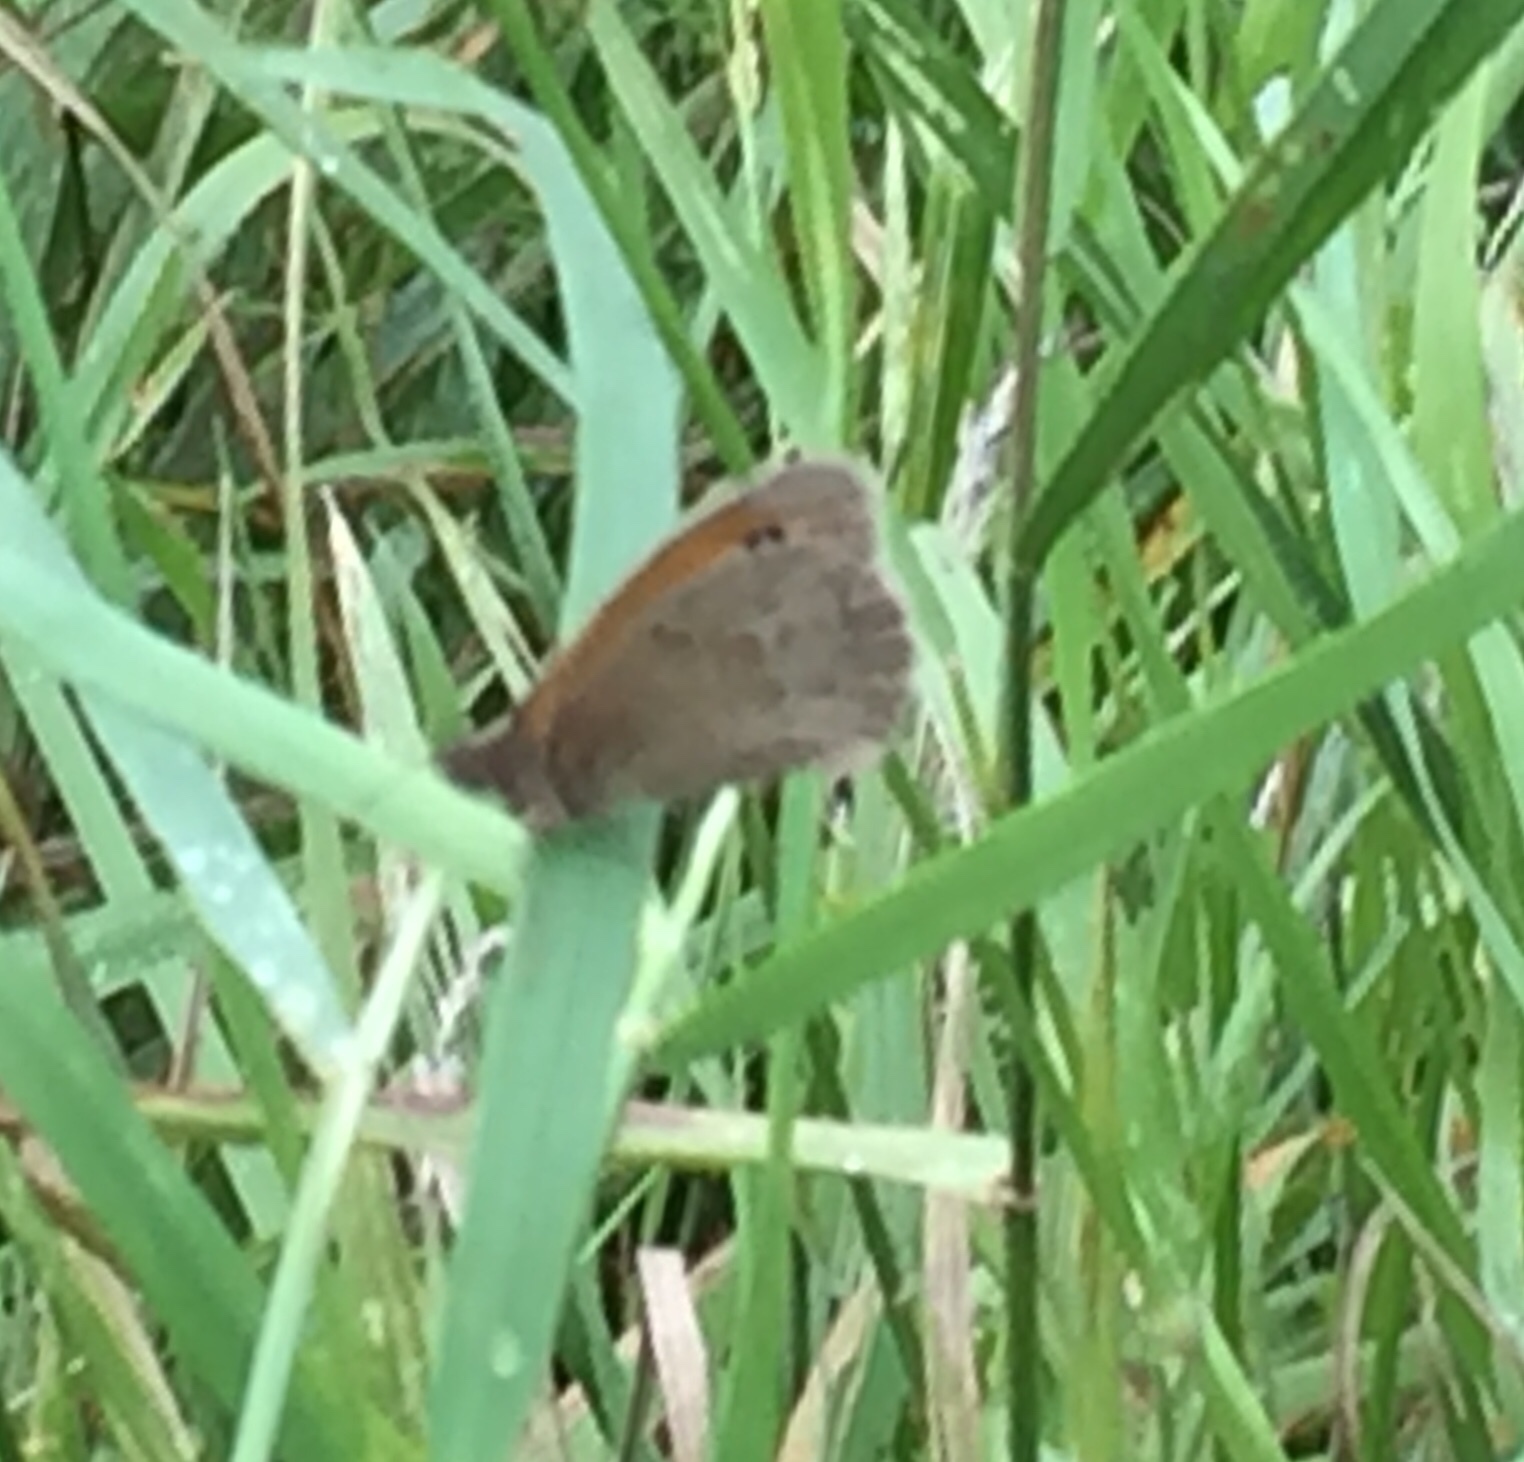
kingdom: Animalia
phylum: Arthropoda
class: Insecta
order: Lepidoptera
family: Nymphalidae
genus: Coenonympha
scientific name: Coenonympha pamphilus
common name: Small heath
